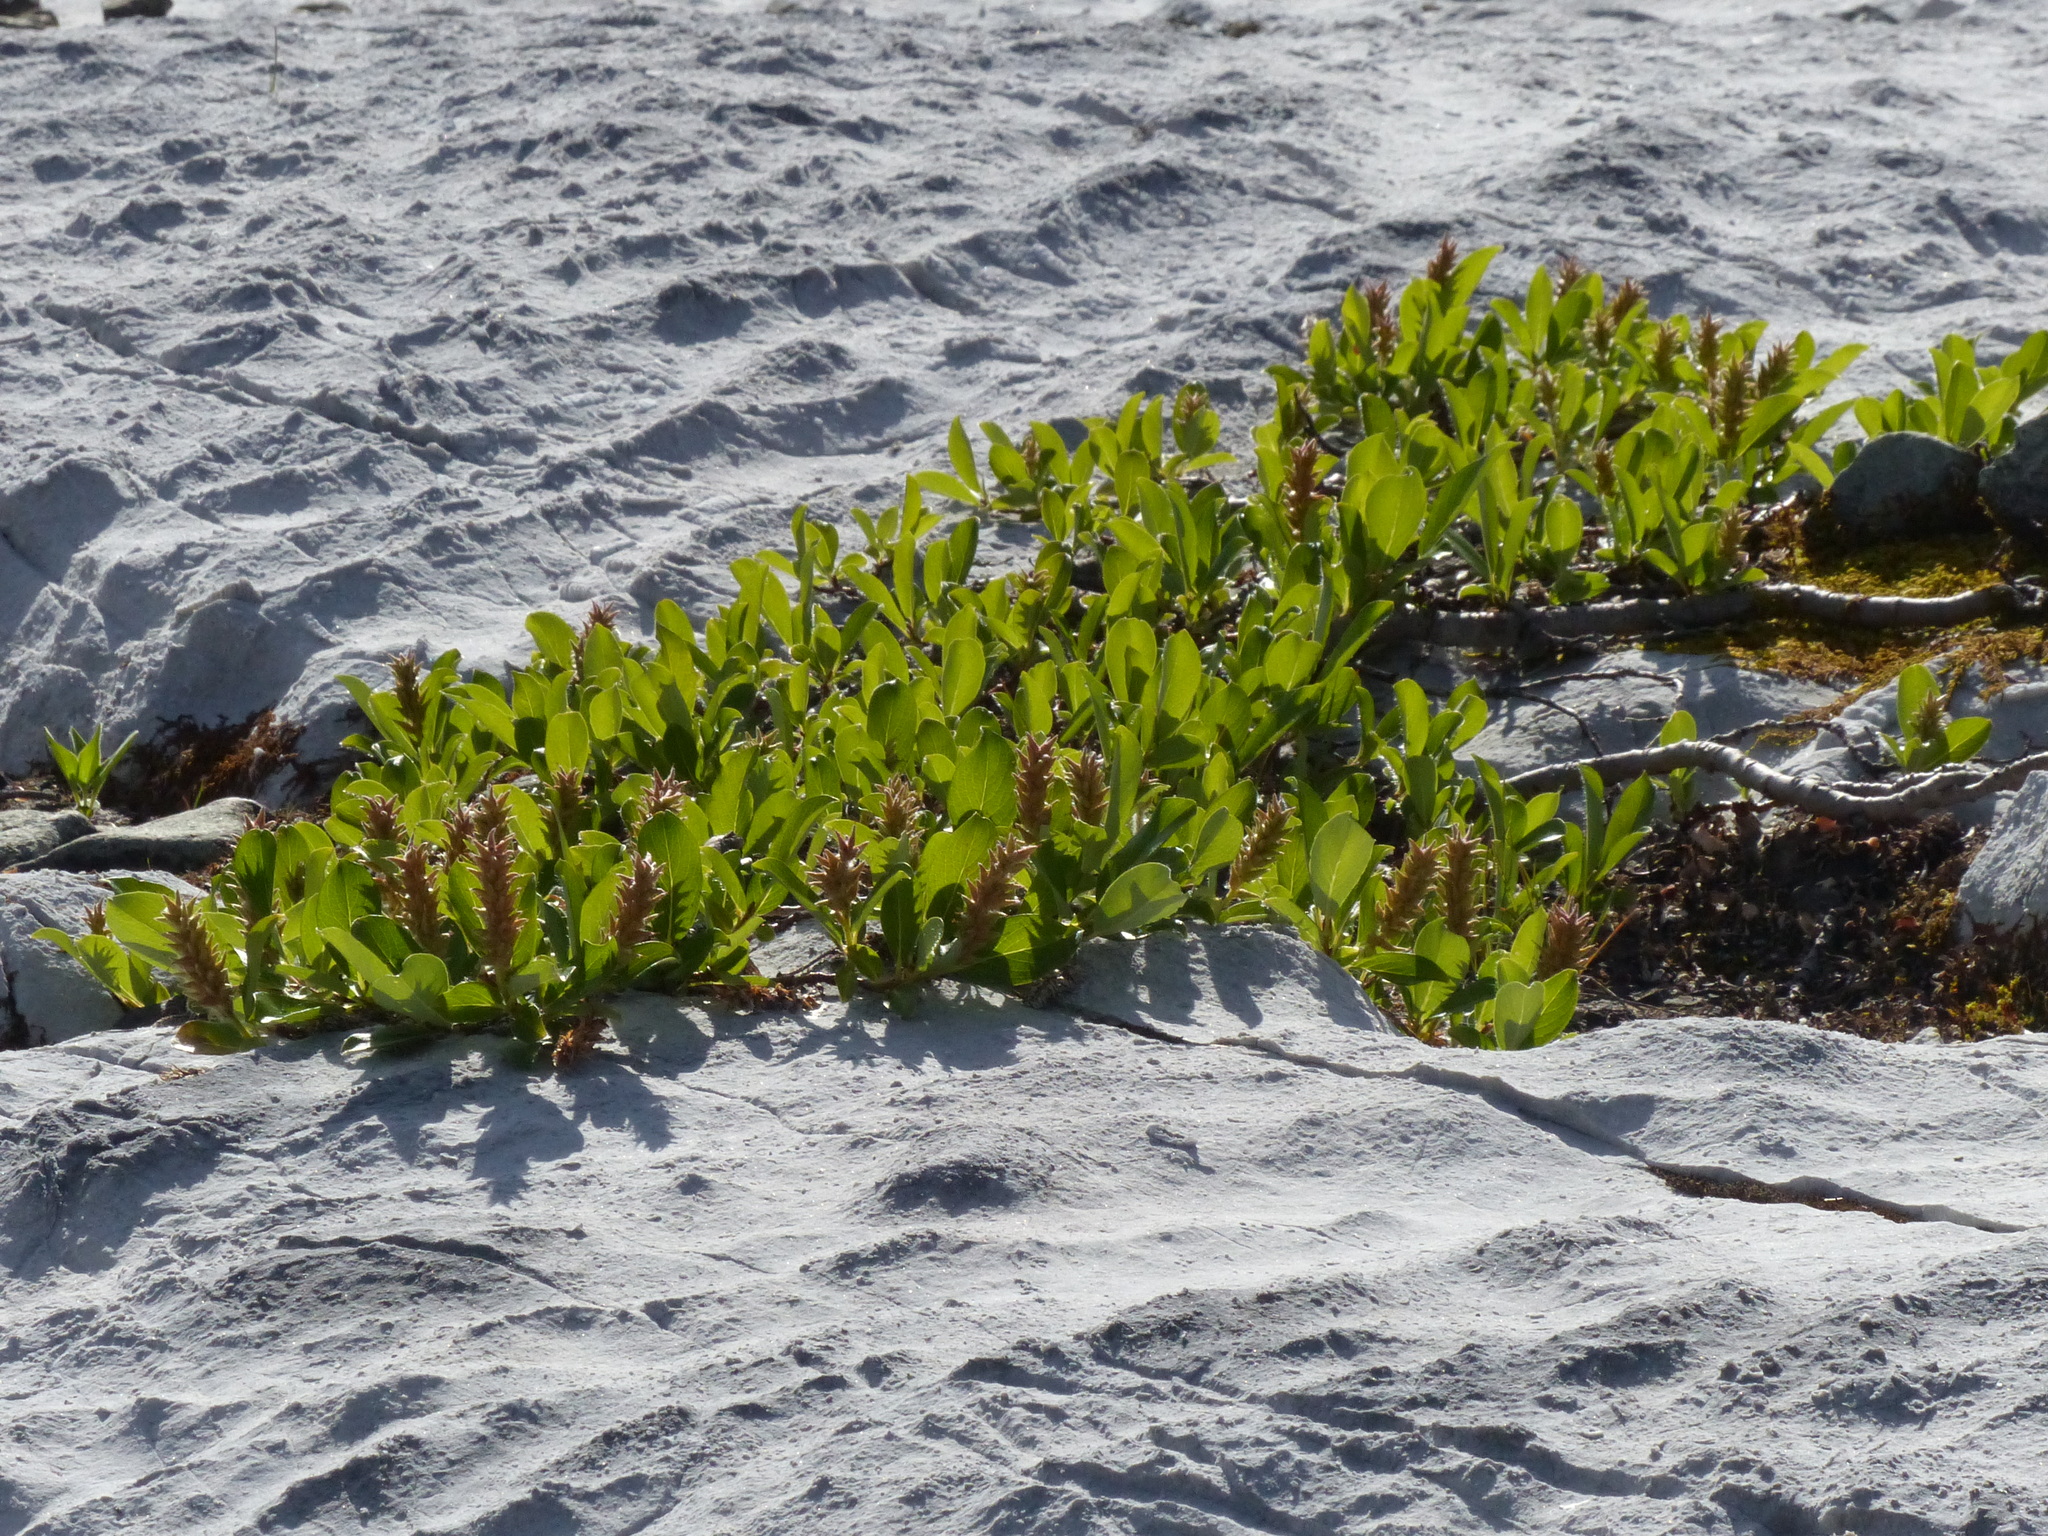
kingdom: Plantae
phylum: Tracheophyta
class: Magnoliopsida
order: Malpighiales
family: Salicaceae
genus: Salix
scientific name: Salix arctica
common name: Arctic willow
